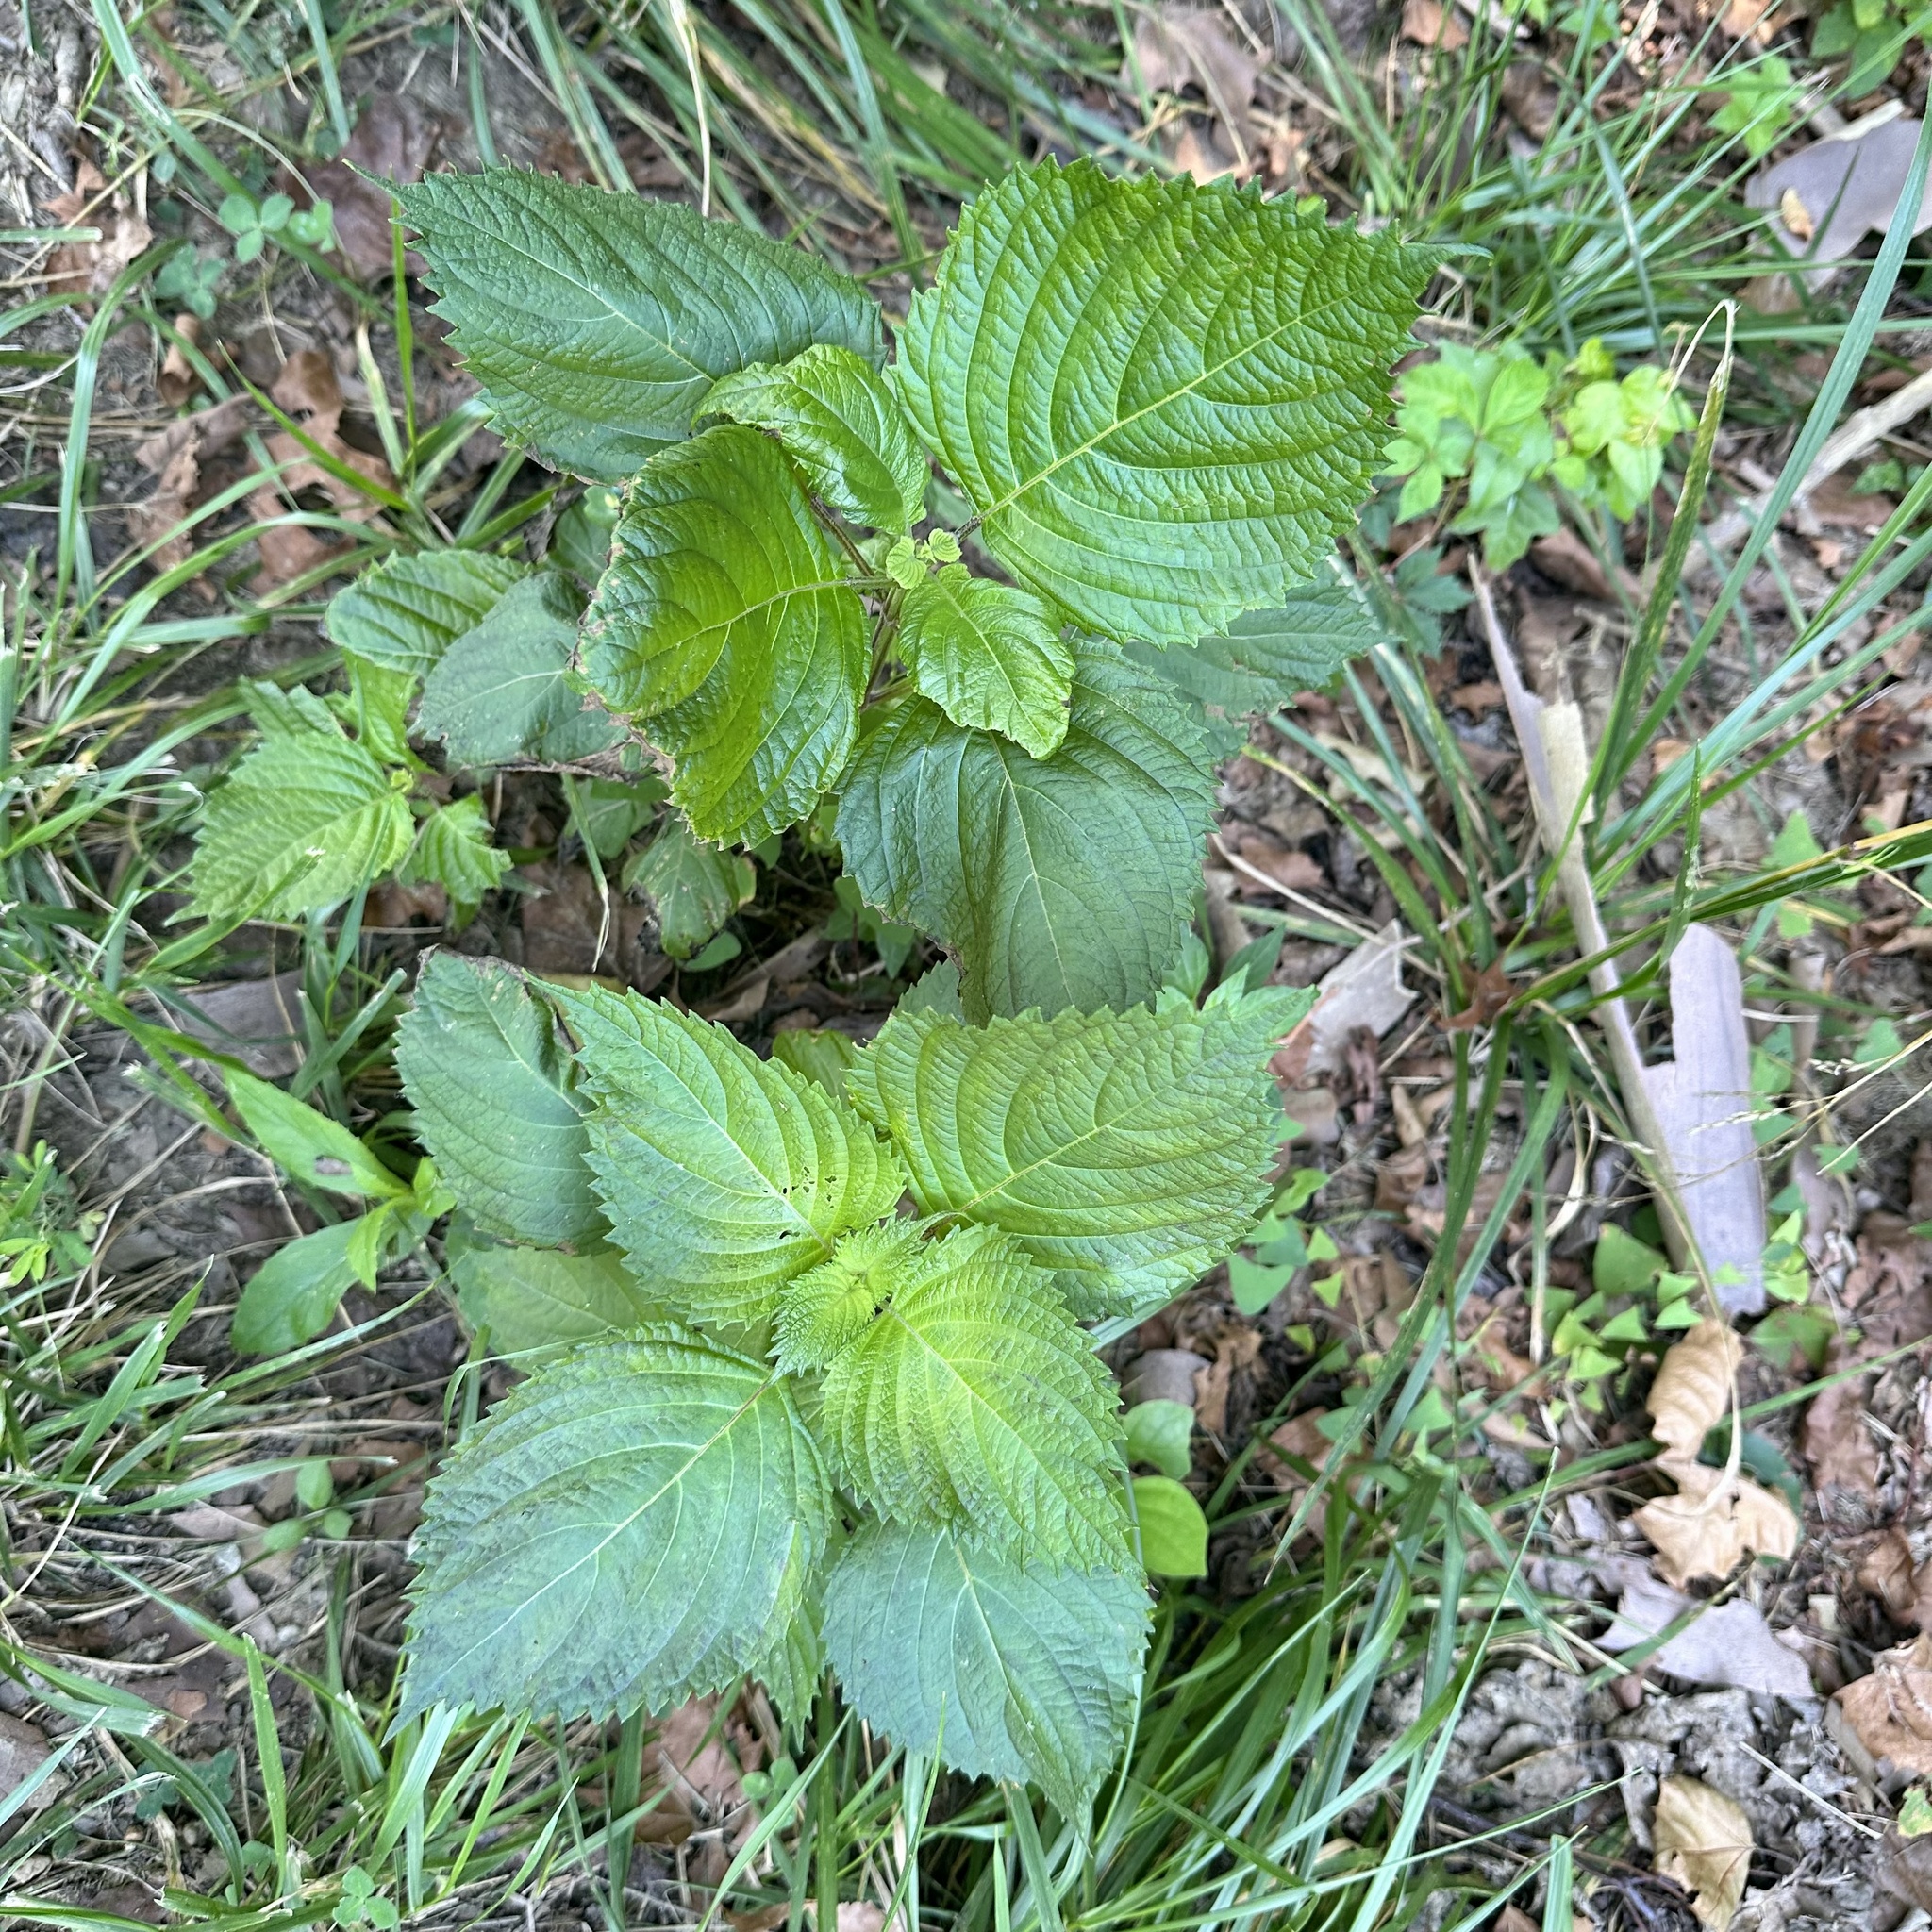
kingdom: Plantae
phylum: Tracheophyta
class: Magnoliopsida
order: Lamiales
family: Lamiaceae
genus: Perilla
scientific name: Perilla frutescens
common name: Perilla
